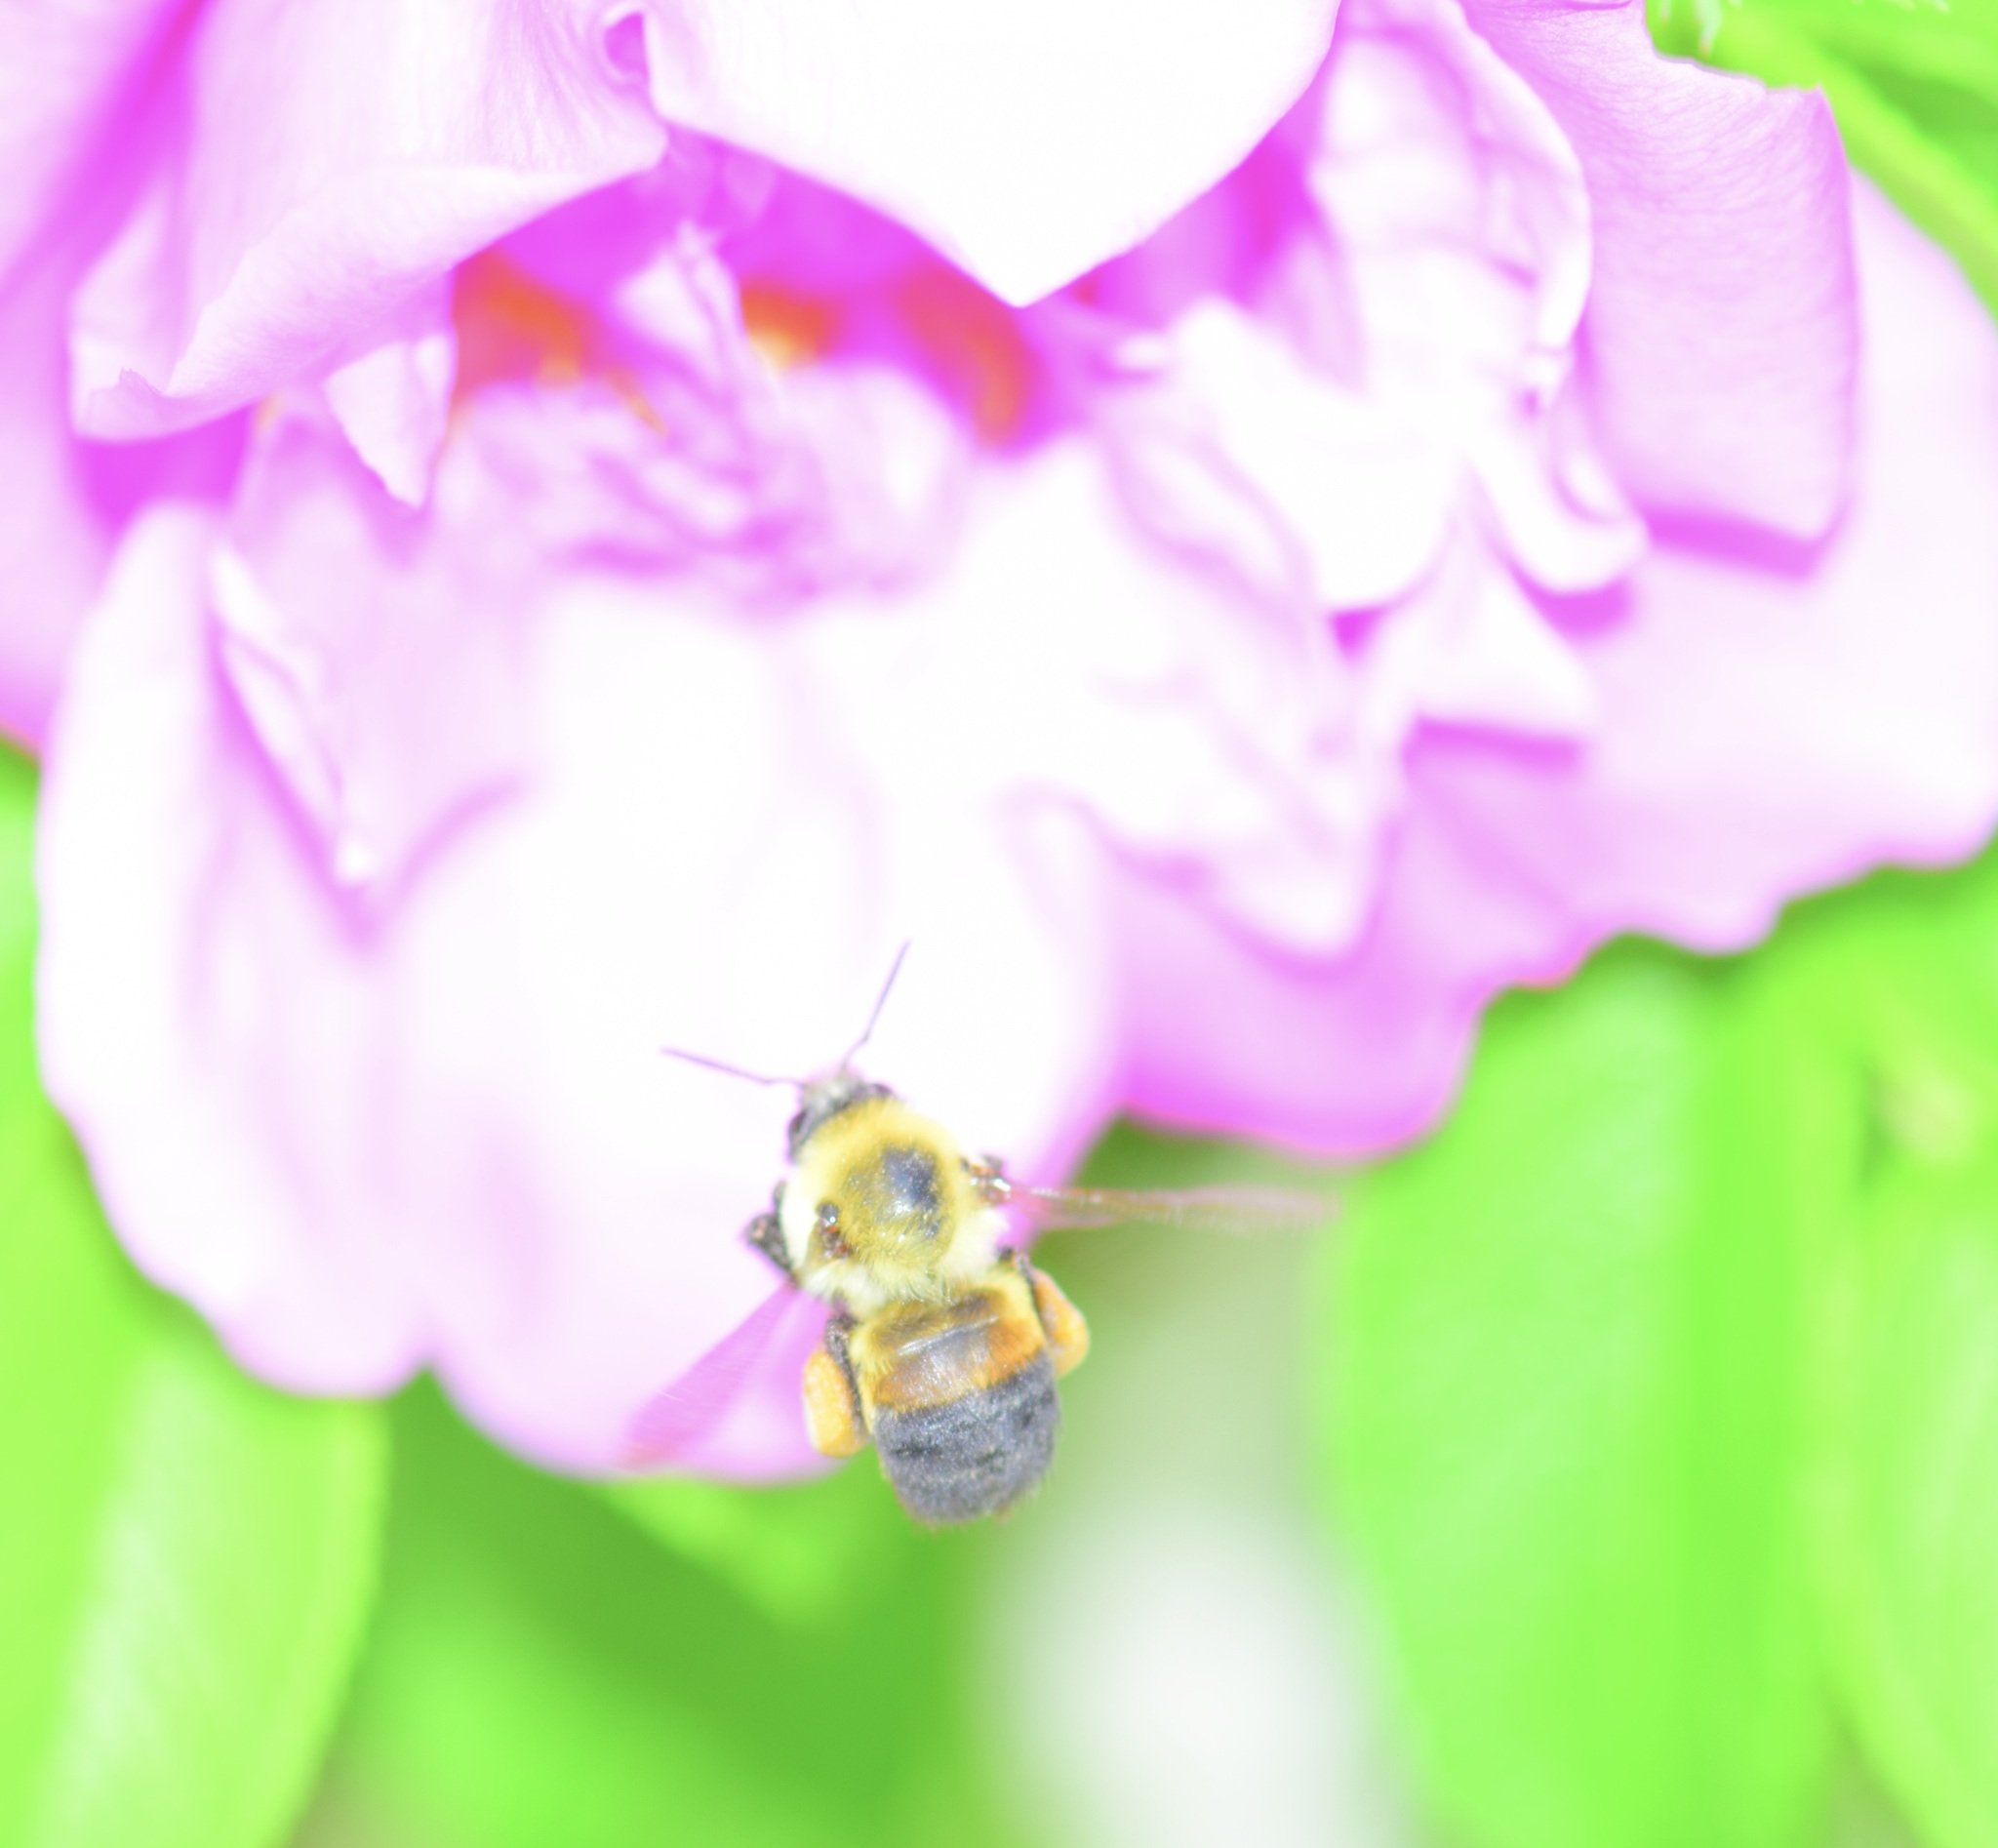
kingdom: Animalia
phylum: Arthropoda
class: Insecta
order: Hymenoptera
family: Apidae
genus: Bombus
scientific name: Bombus griseocollis
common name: Brown-belted bumble bee
